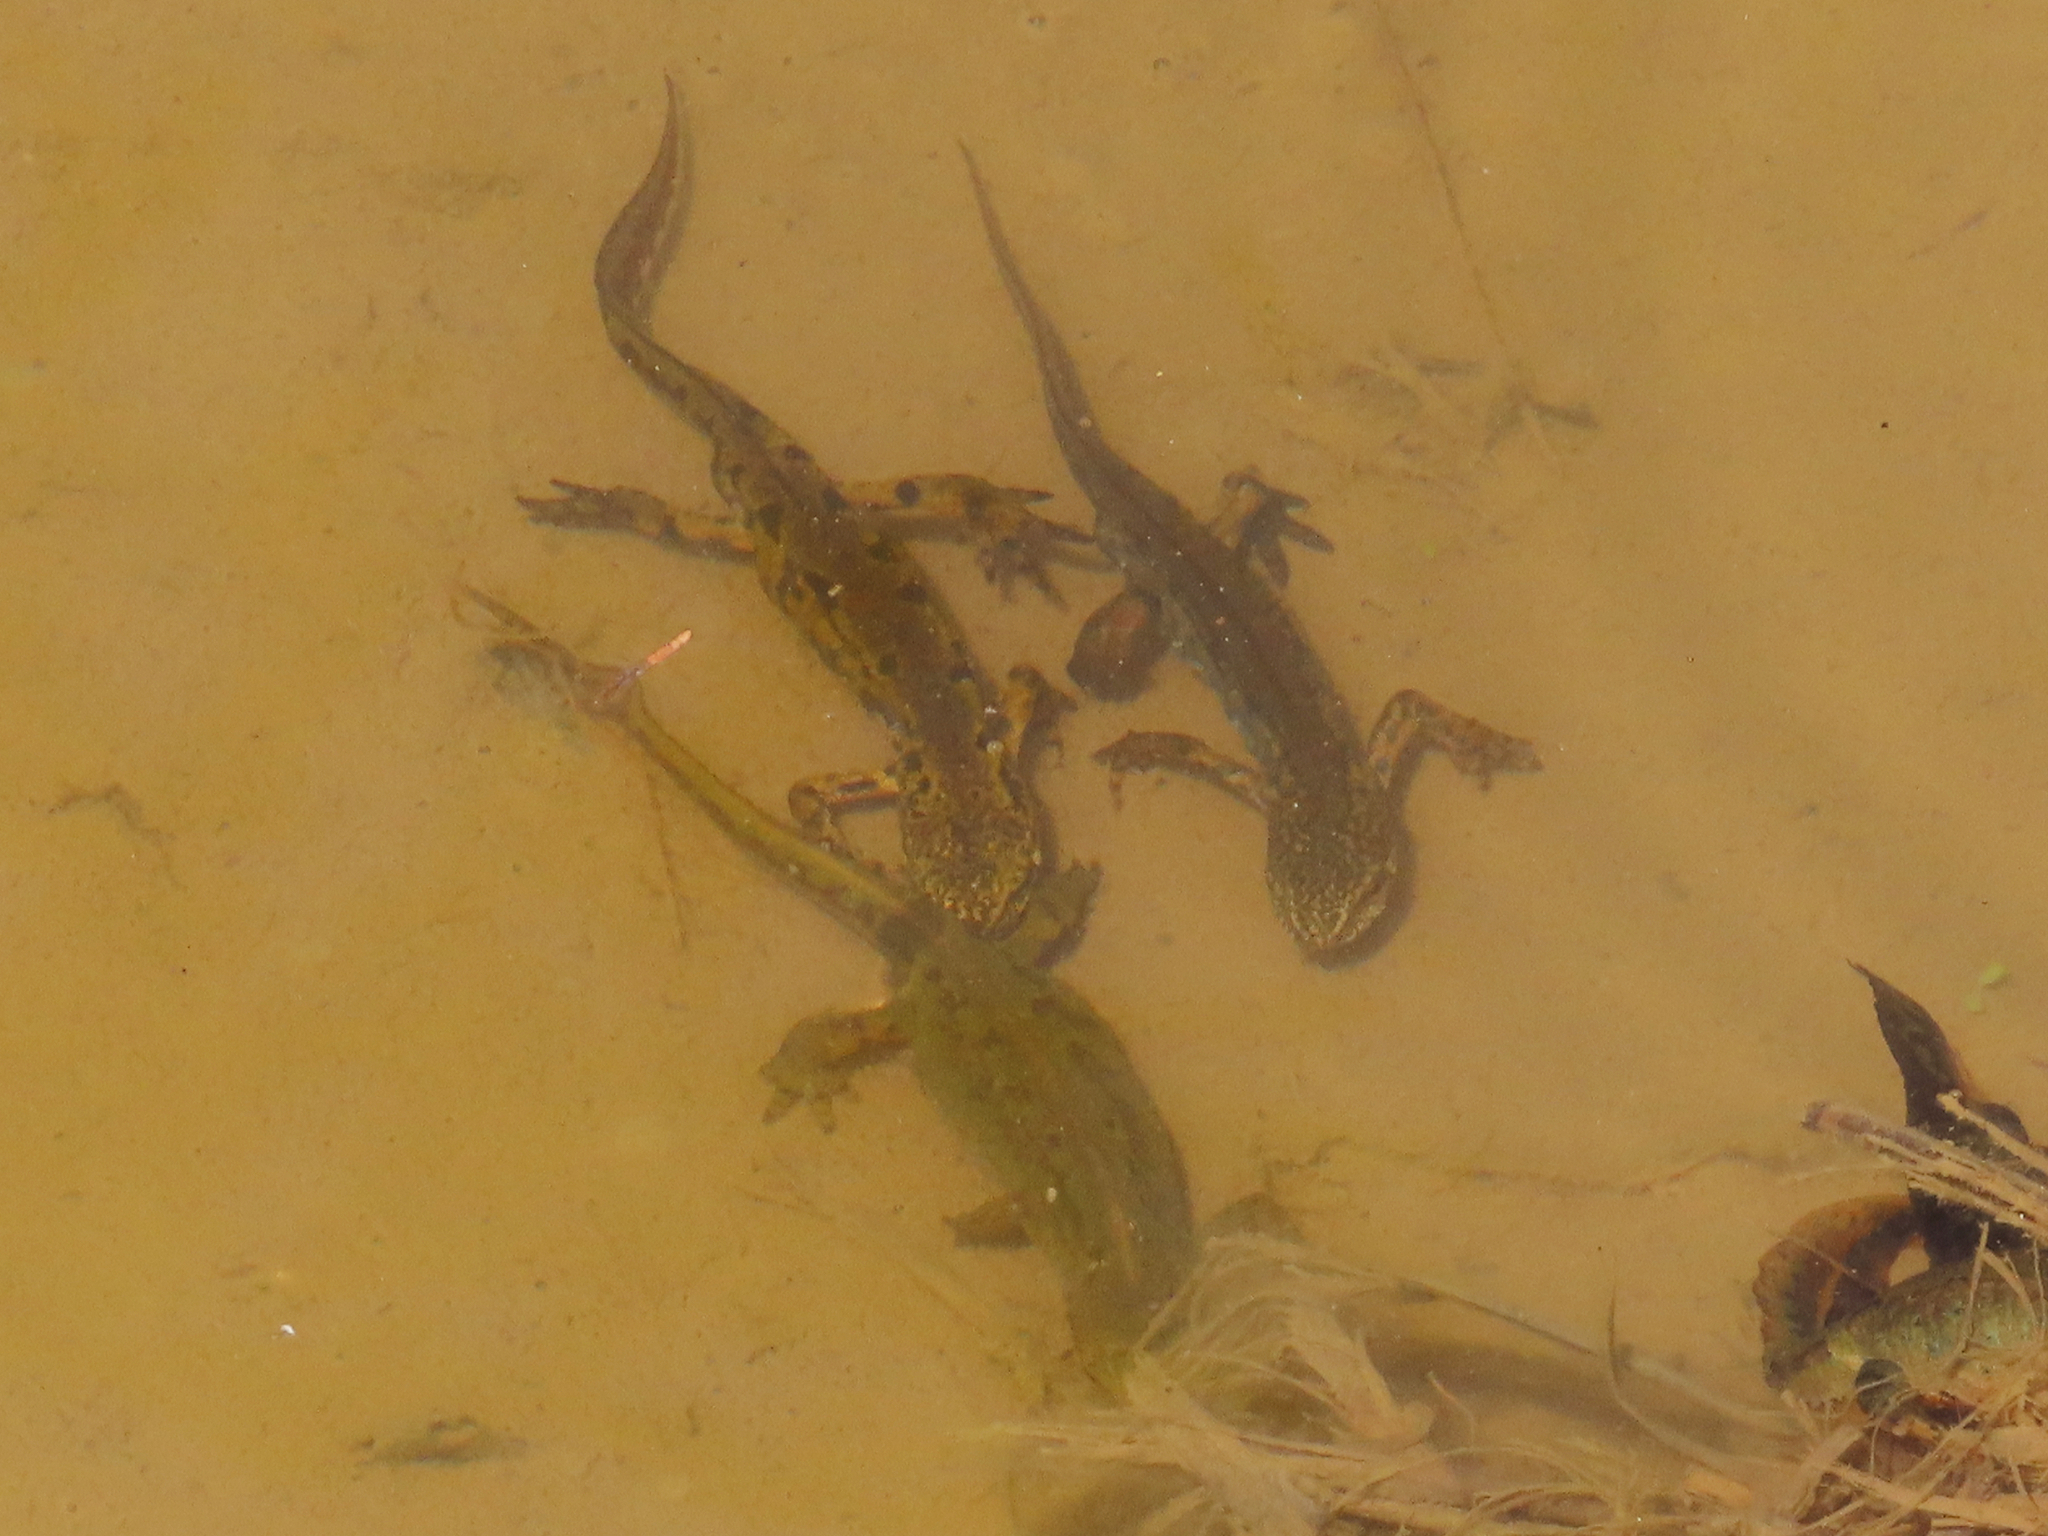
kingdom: Animalia
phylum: Chordata
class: Amphibia
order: Caudata
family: Salamandridae
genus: Lissotriton
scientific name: Lissotriton montandoni
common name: Carpathian newt
